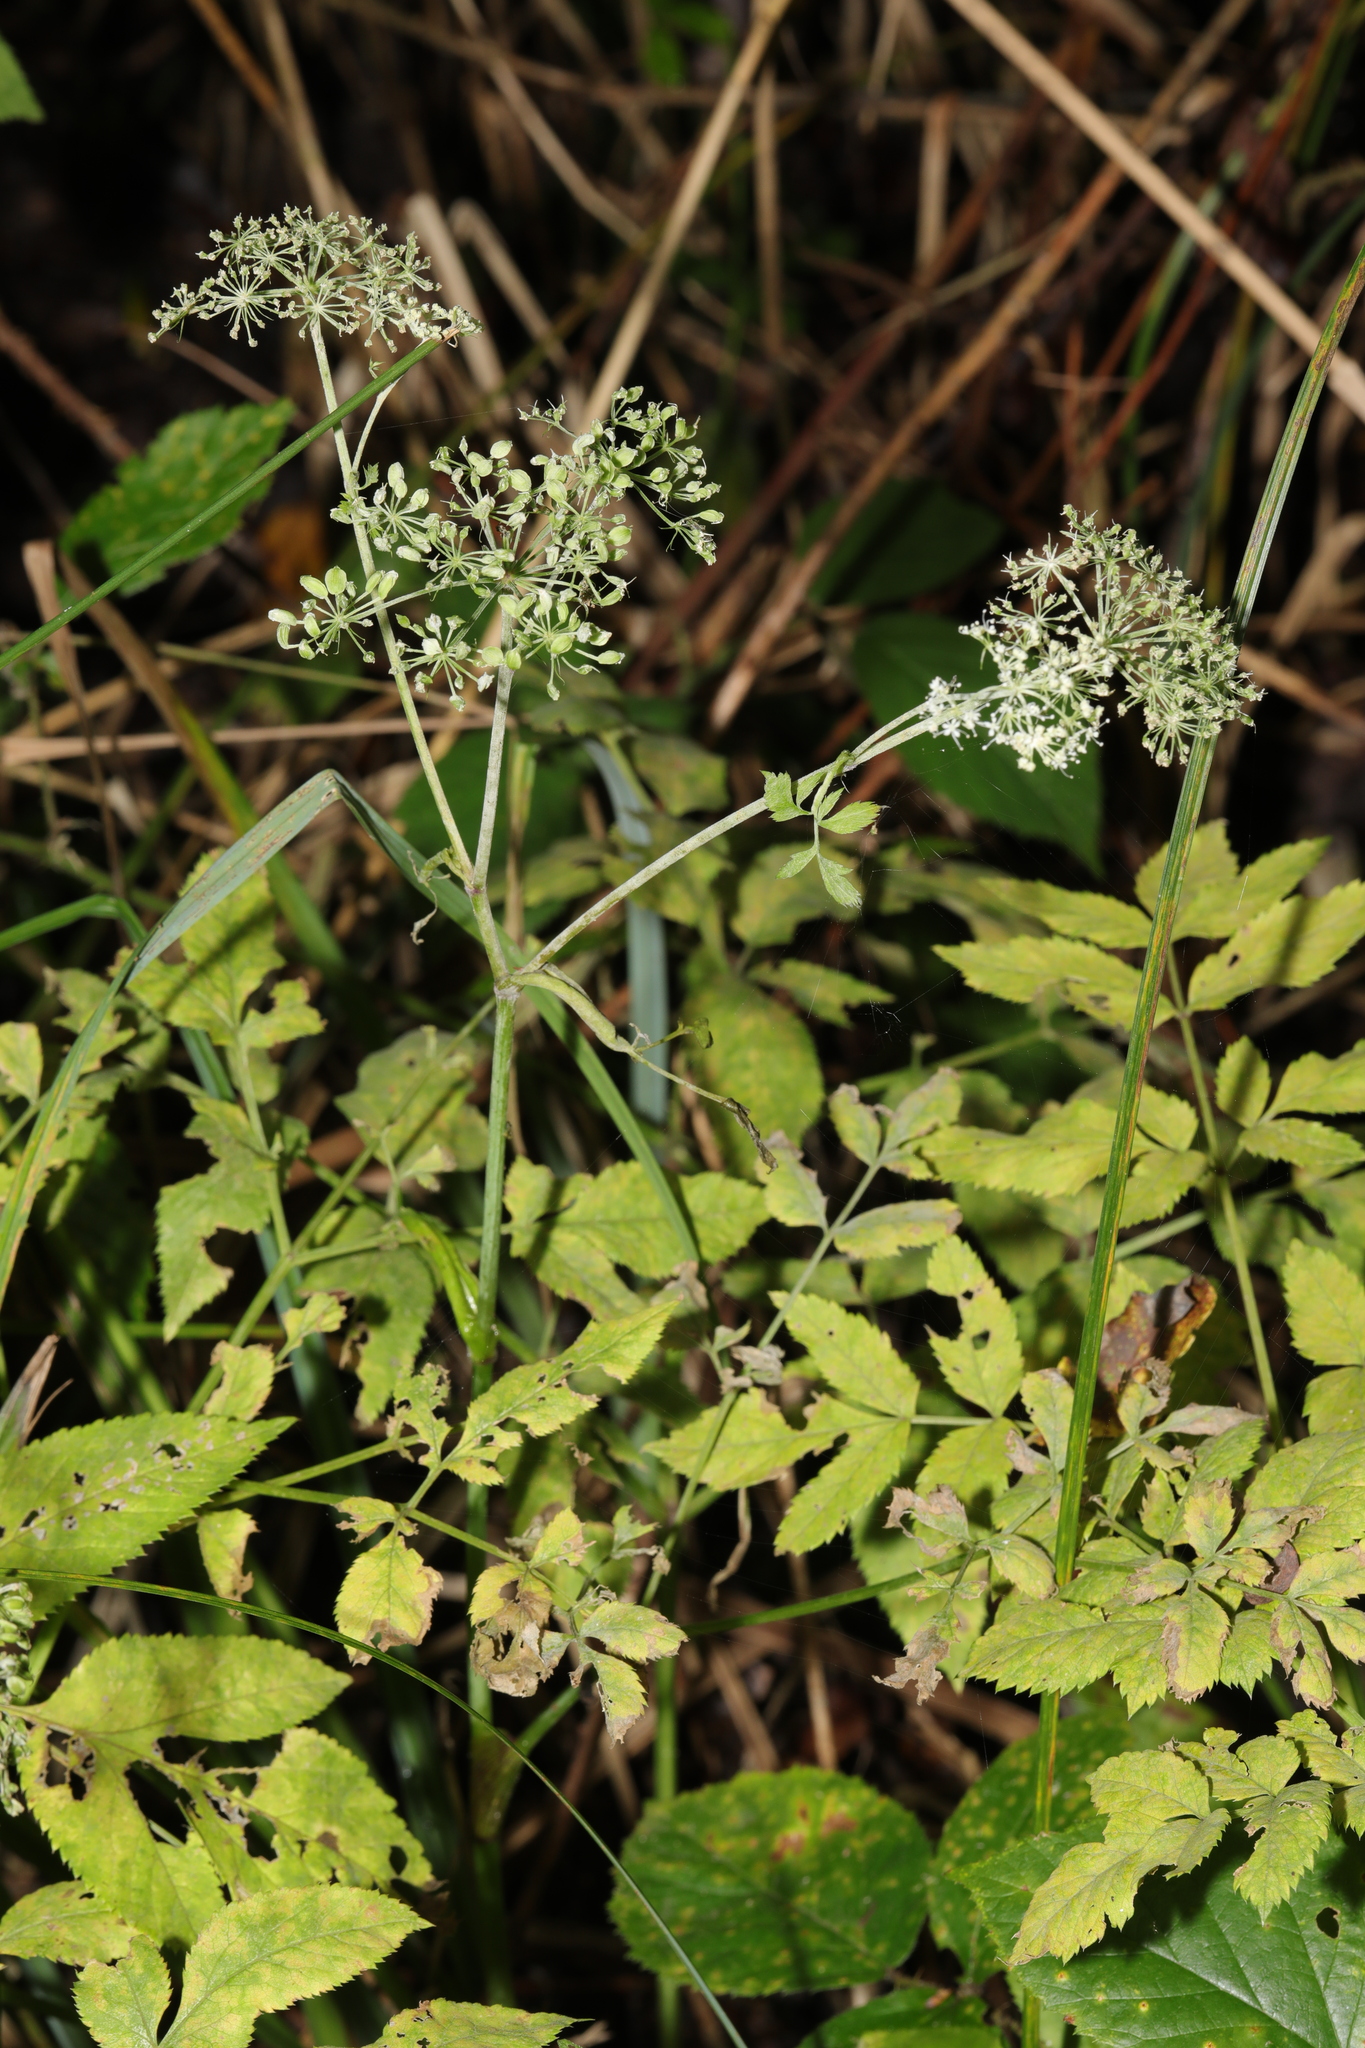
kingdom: Plantae
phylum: Tracheophyta
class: Magnoliopsida
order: Apiales
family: Apiaceae
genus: Angelica
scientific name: Angelica sylvestris
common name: Wild angelica
